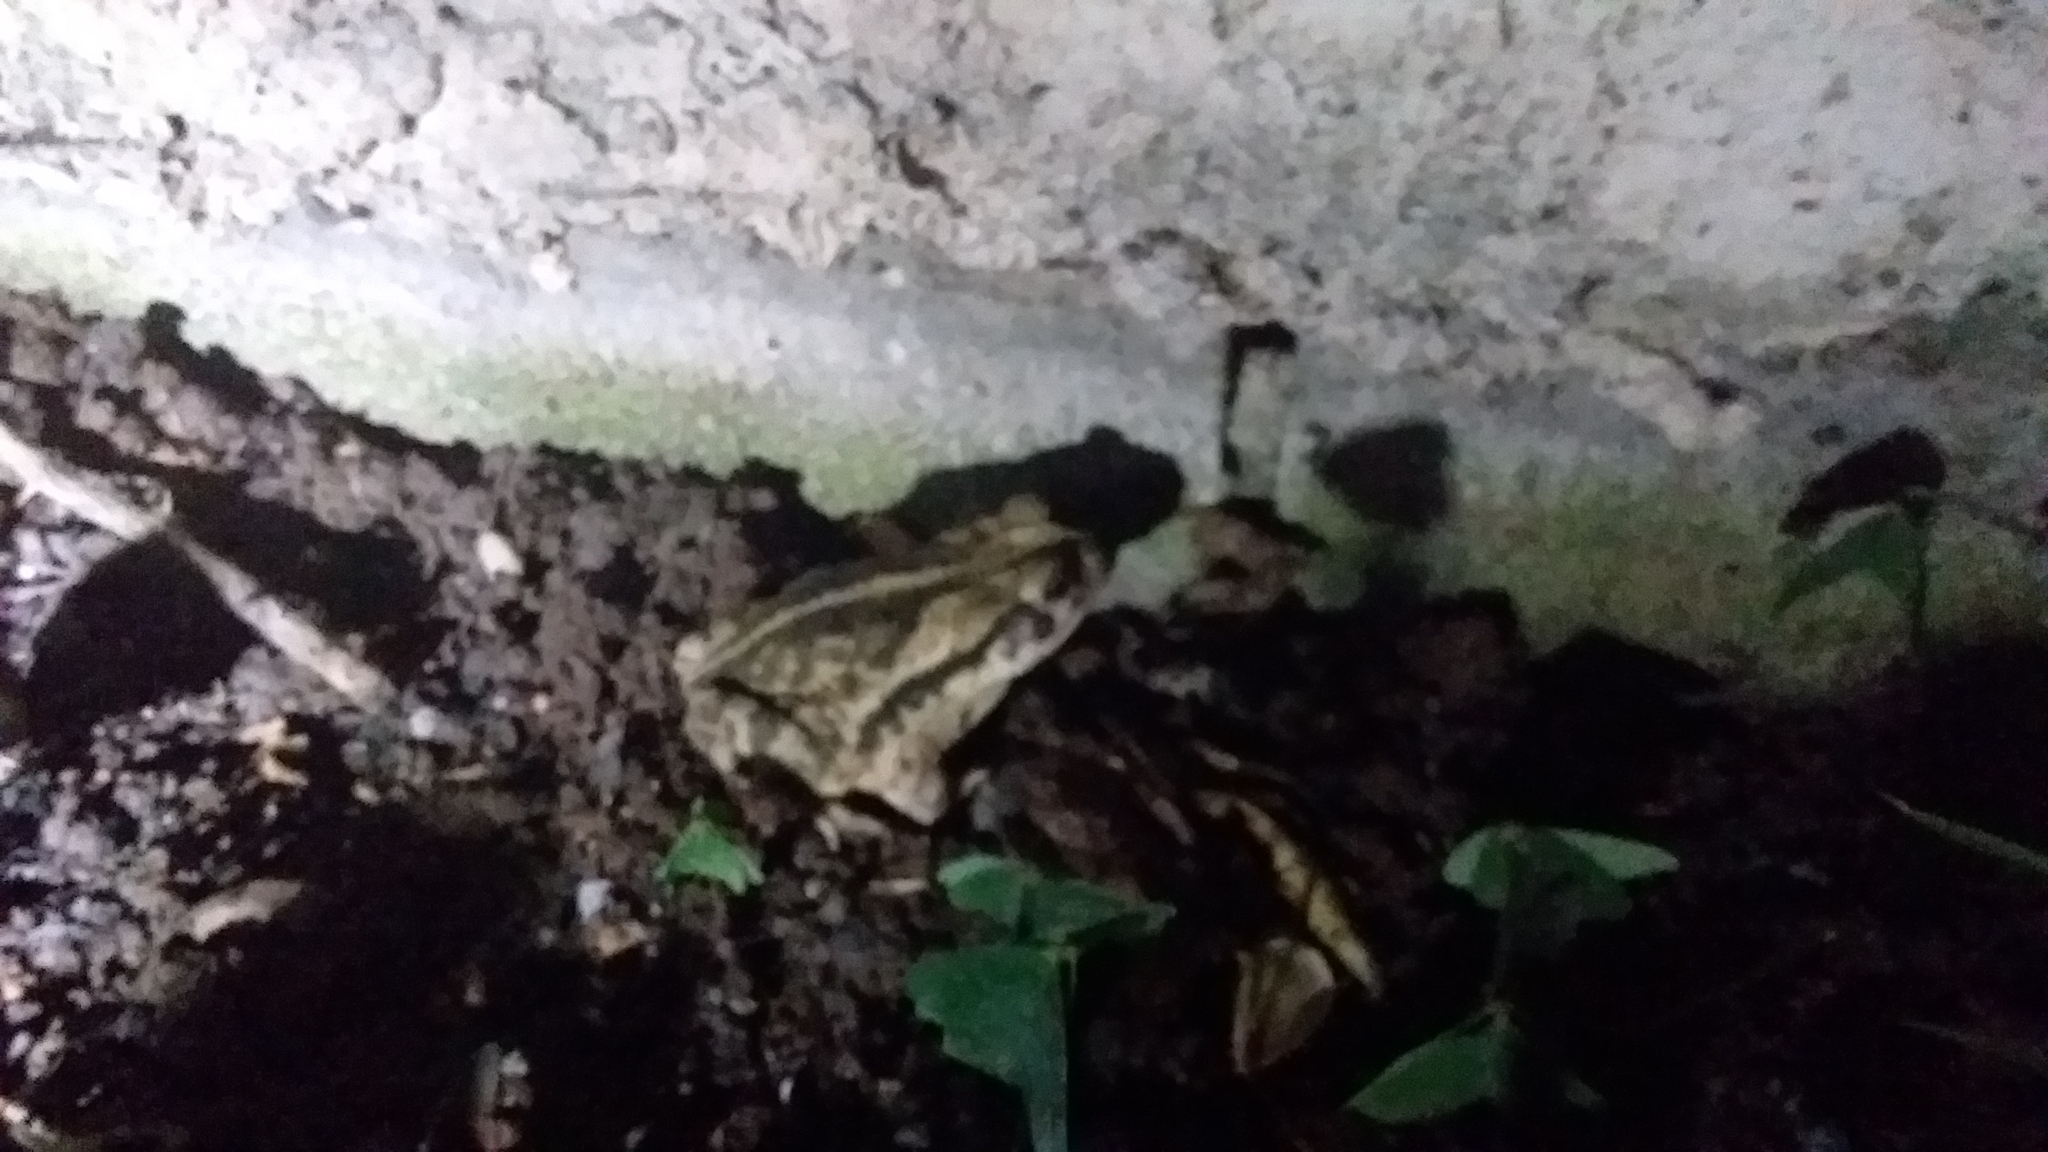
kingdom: Animalia
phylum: Chordata
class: Amphibia
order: Anura
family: Bufonidae
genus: Incilius
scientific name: Incilius nebulifer
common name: Gulf coast toad
